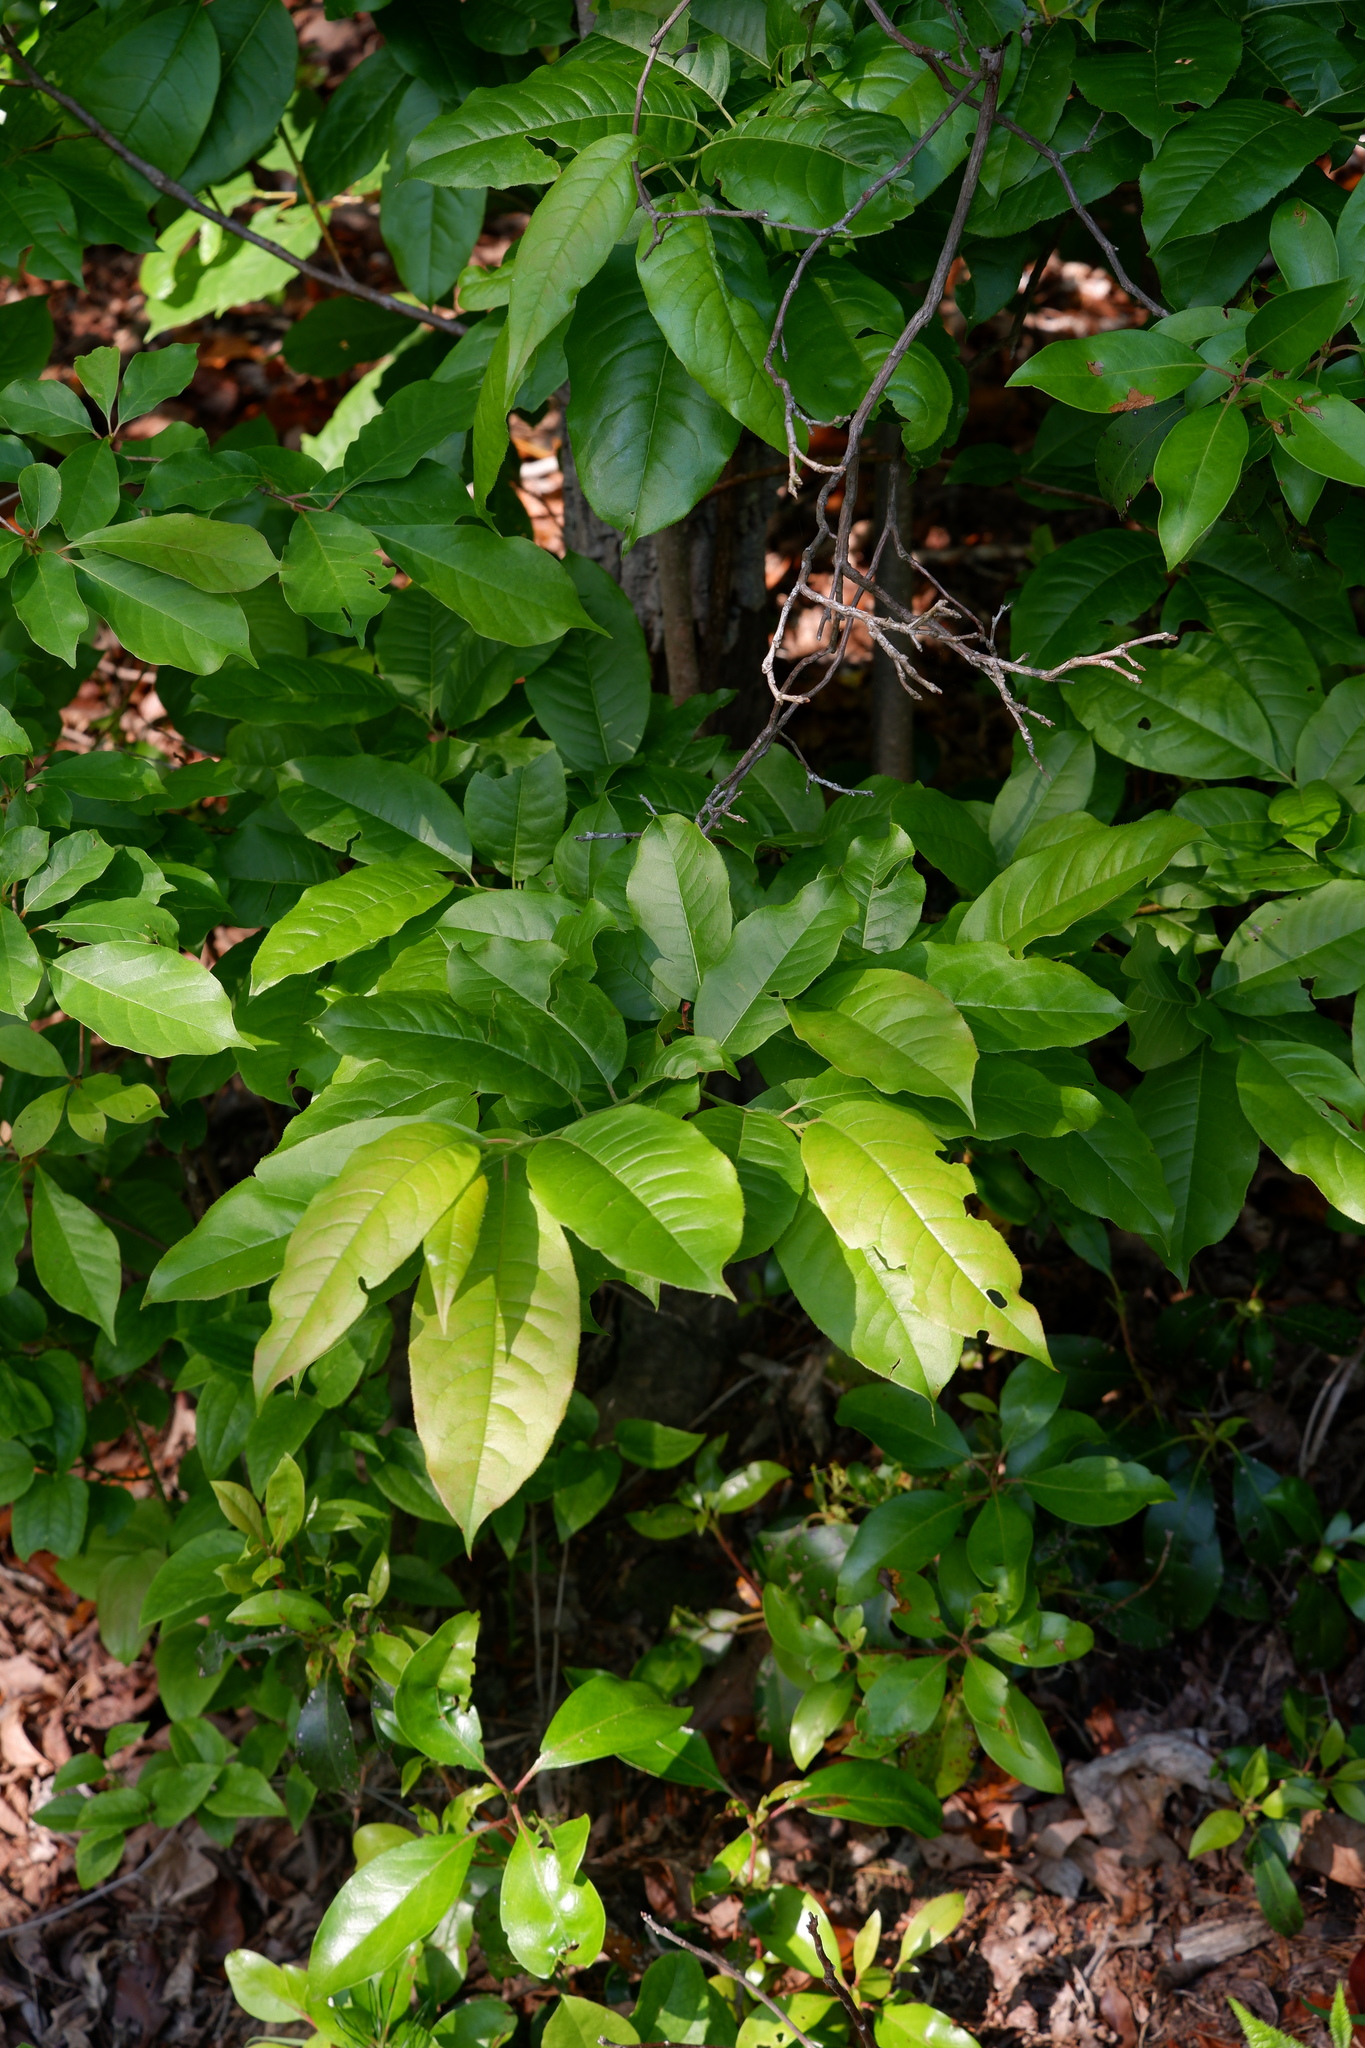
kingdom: Plantae
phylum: Tracheophyta
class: Magnoliopsida
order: Ericales
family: Ericaceae
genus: Oxydendrum
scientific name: Oxydendrum arboreum
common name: Sourwood
